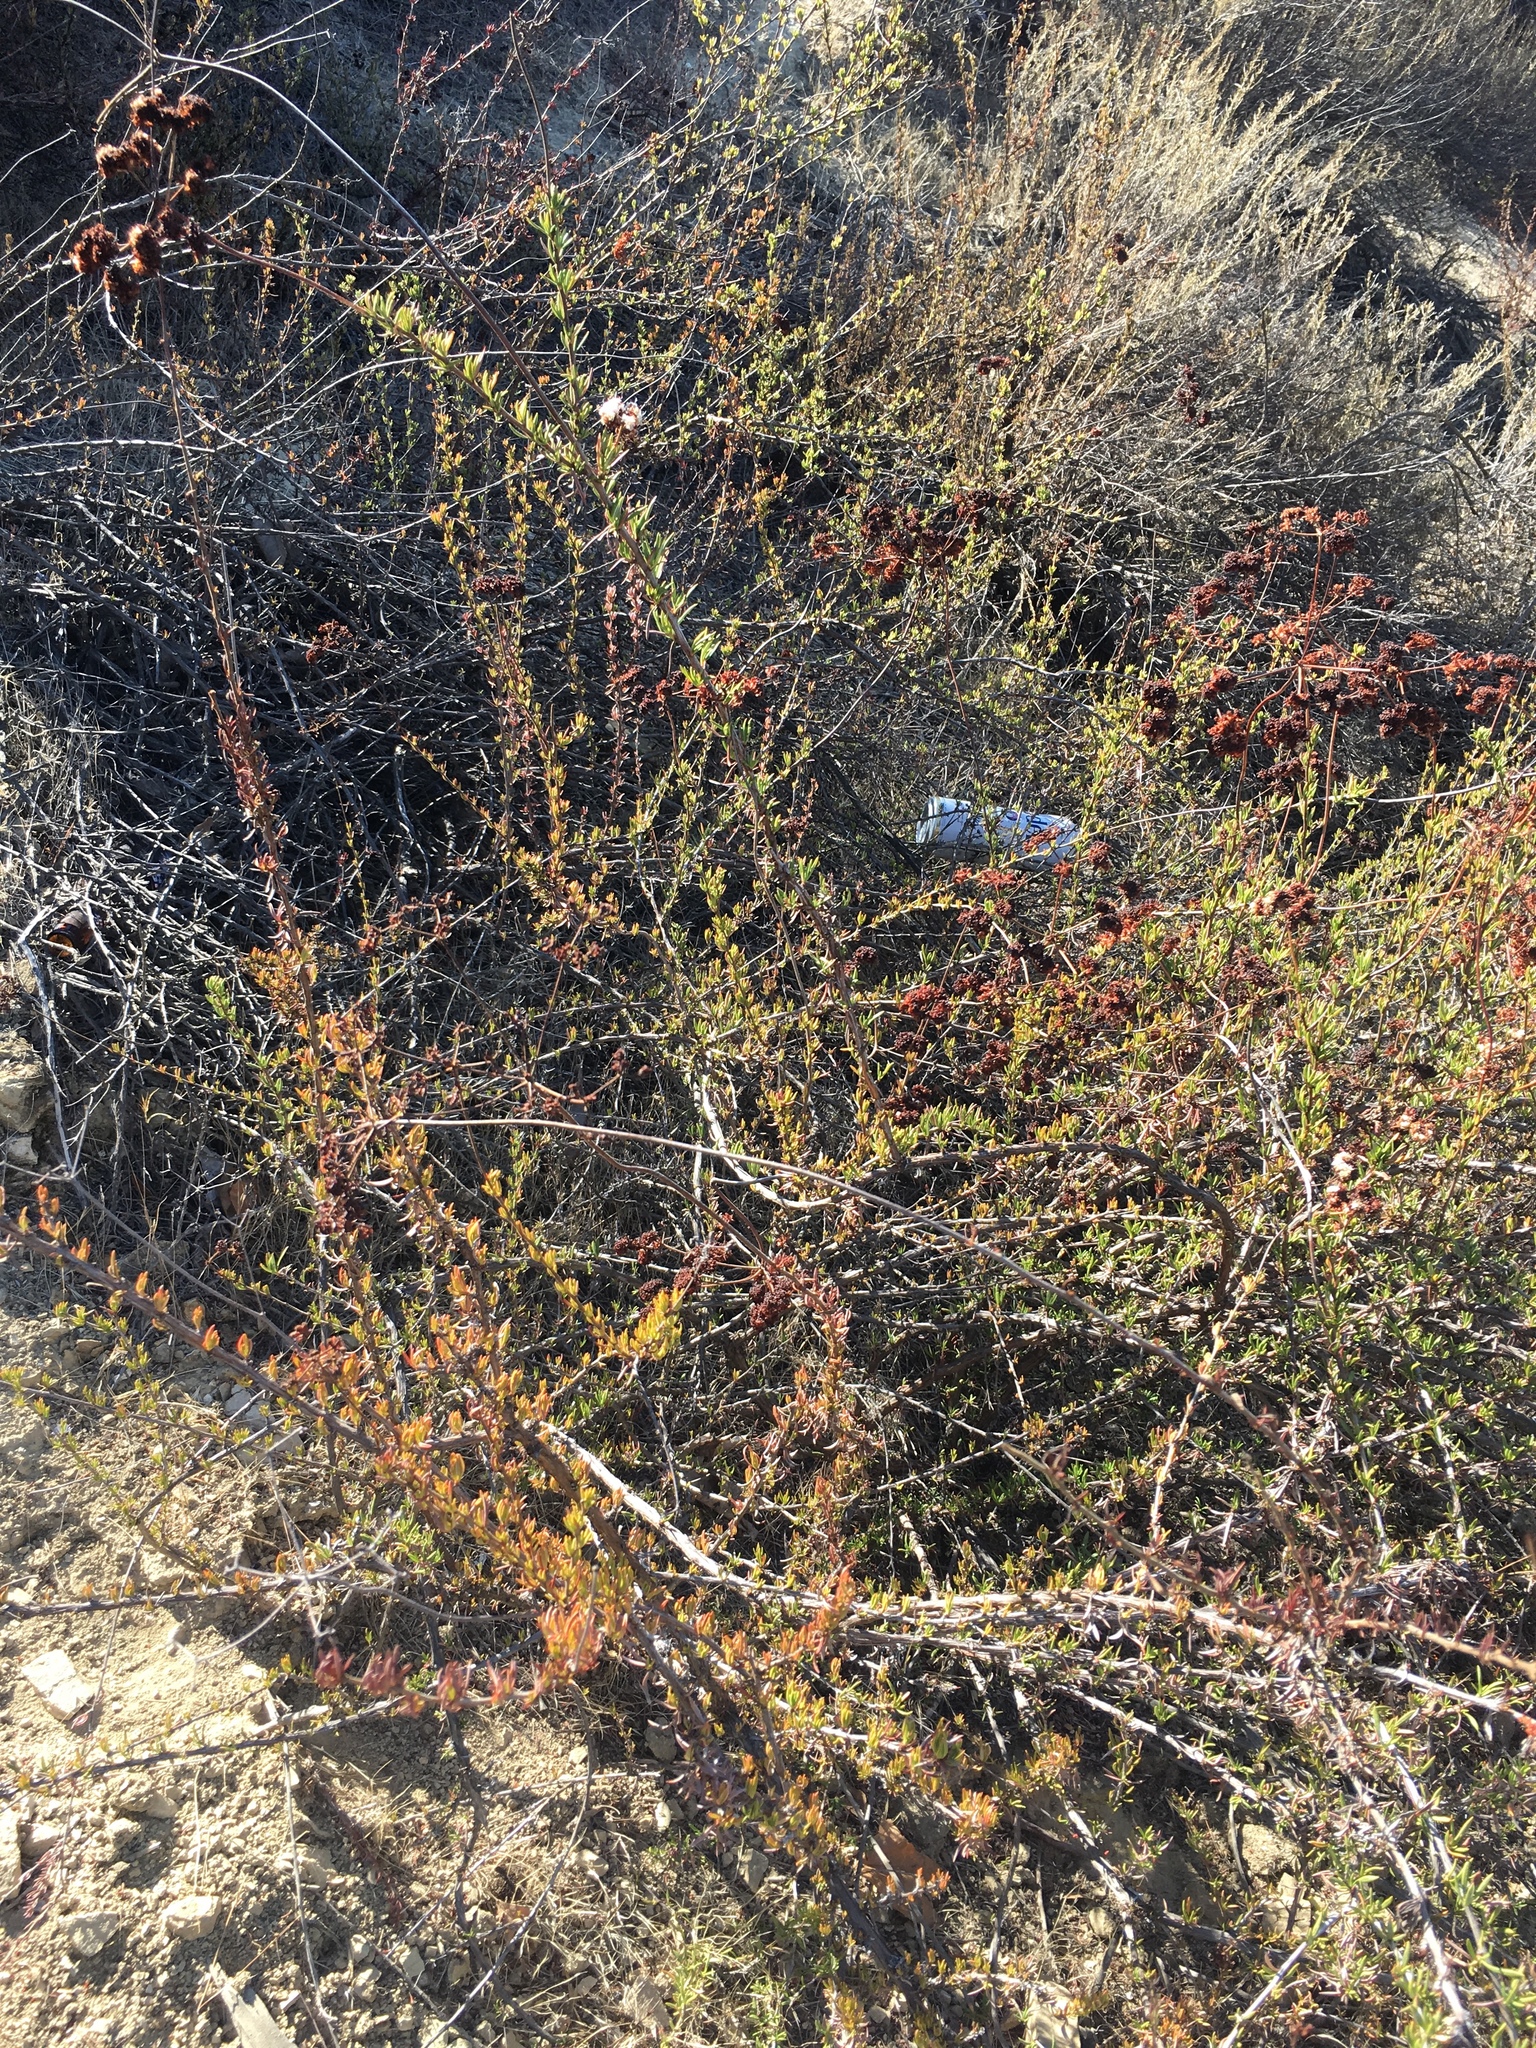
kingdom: Plantae
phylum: Tracheophyta
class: Magnoliopsida
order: Caryophyllales
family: Polygonaceae
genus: Eriogonum
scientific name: Eriogonum fasciculatum
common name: California wild buckwheat
